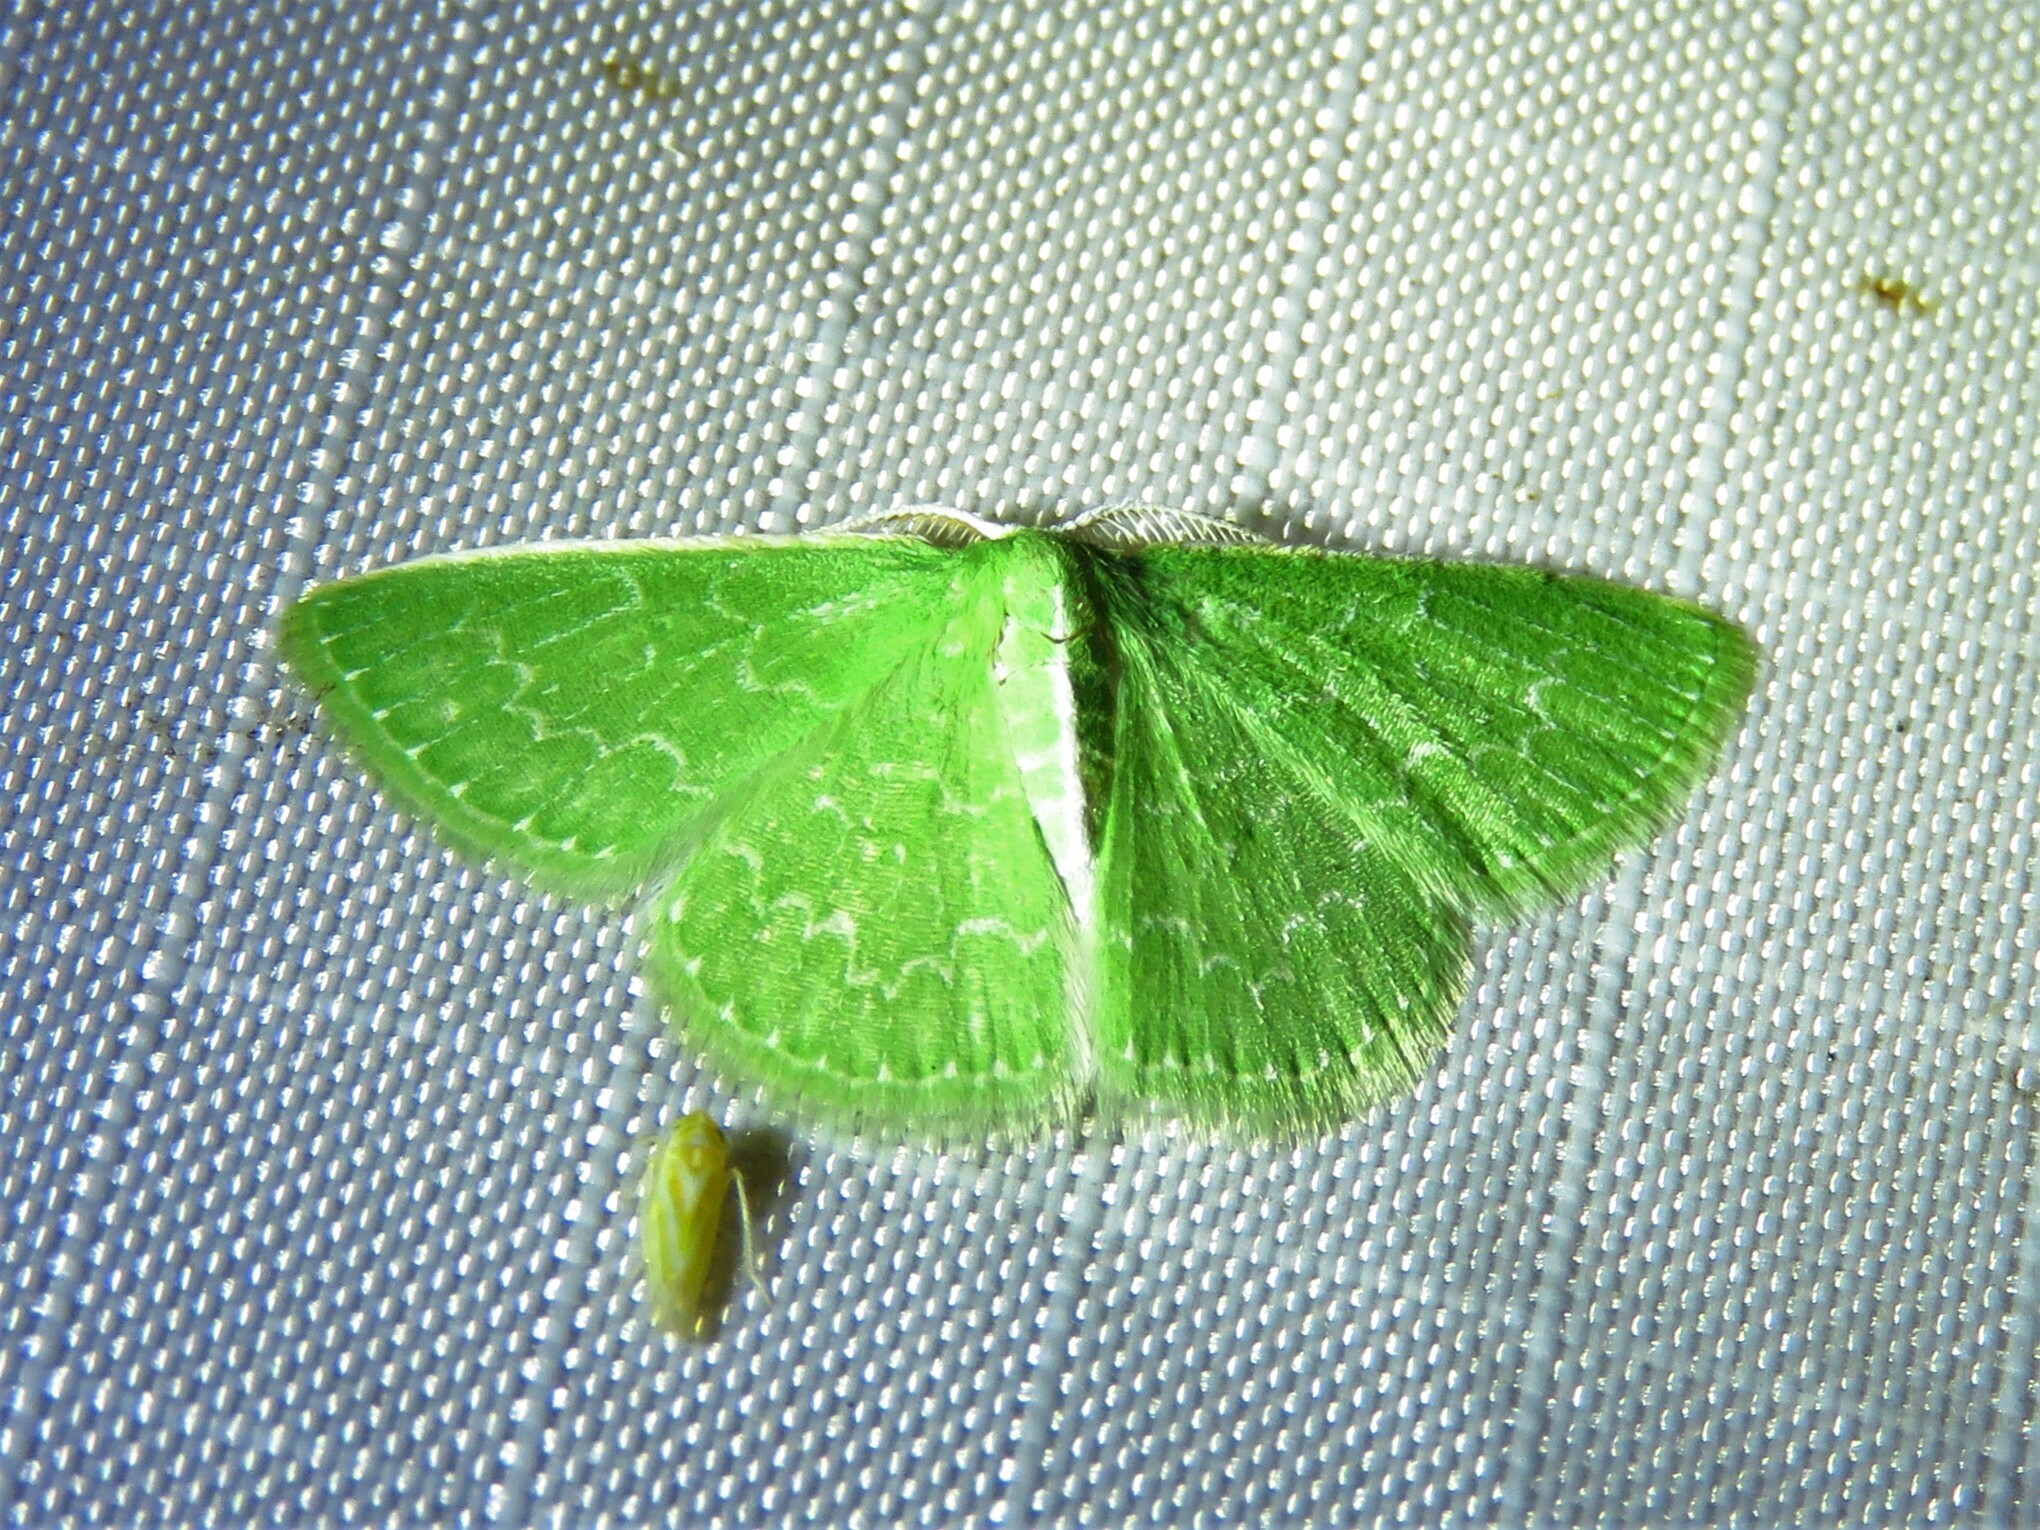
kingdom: Animalia
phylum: Arthropoda
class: Insecta
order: Lepidoptera
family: Geometridae
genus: Synchlora
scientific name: Synchlora frondaria
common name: Southern emerald
